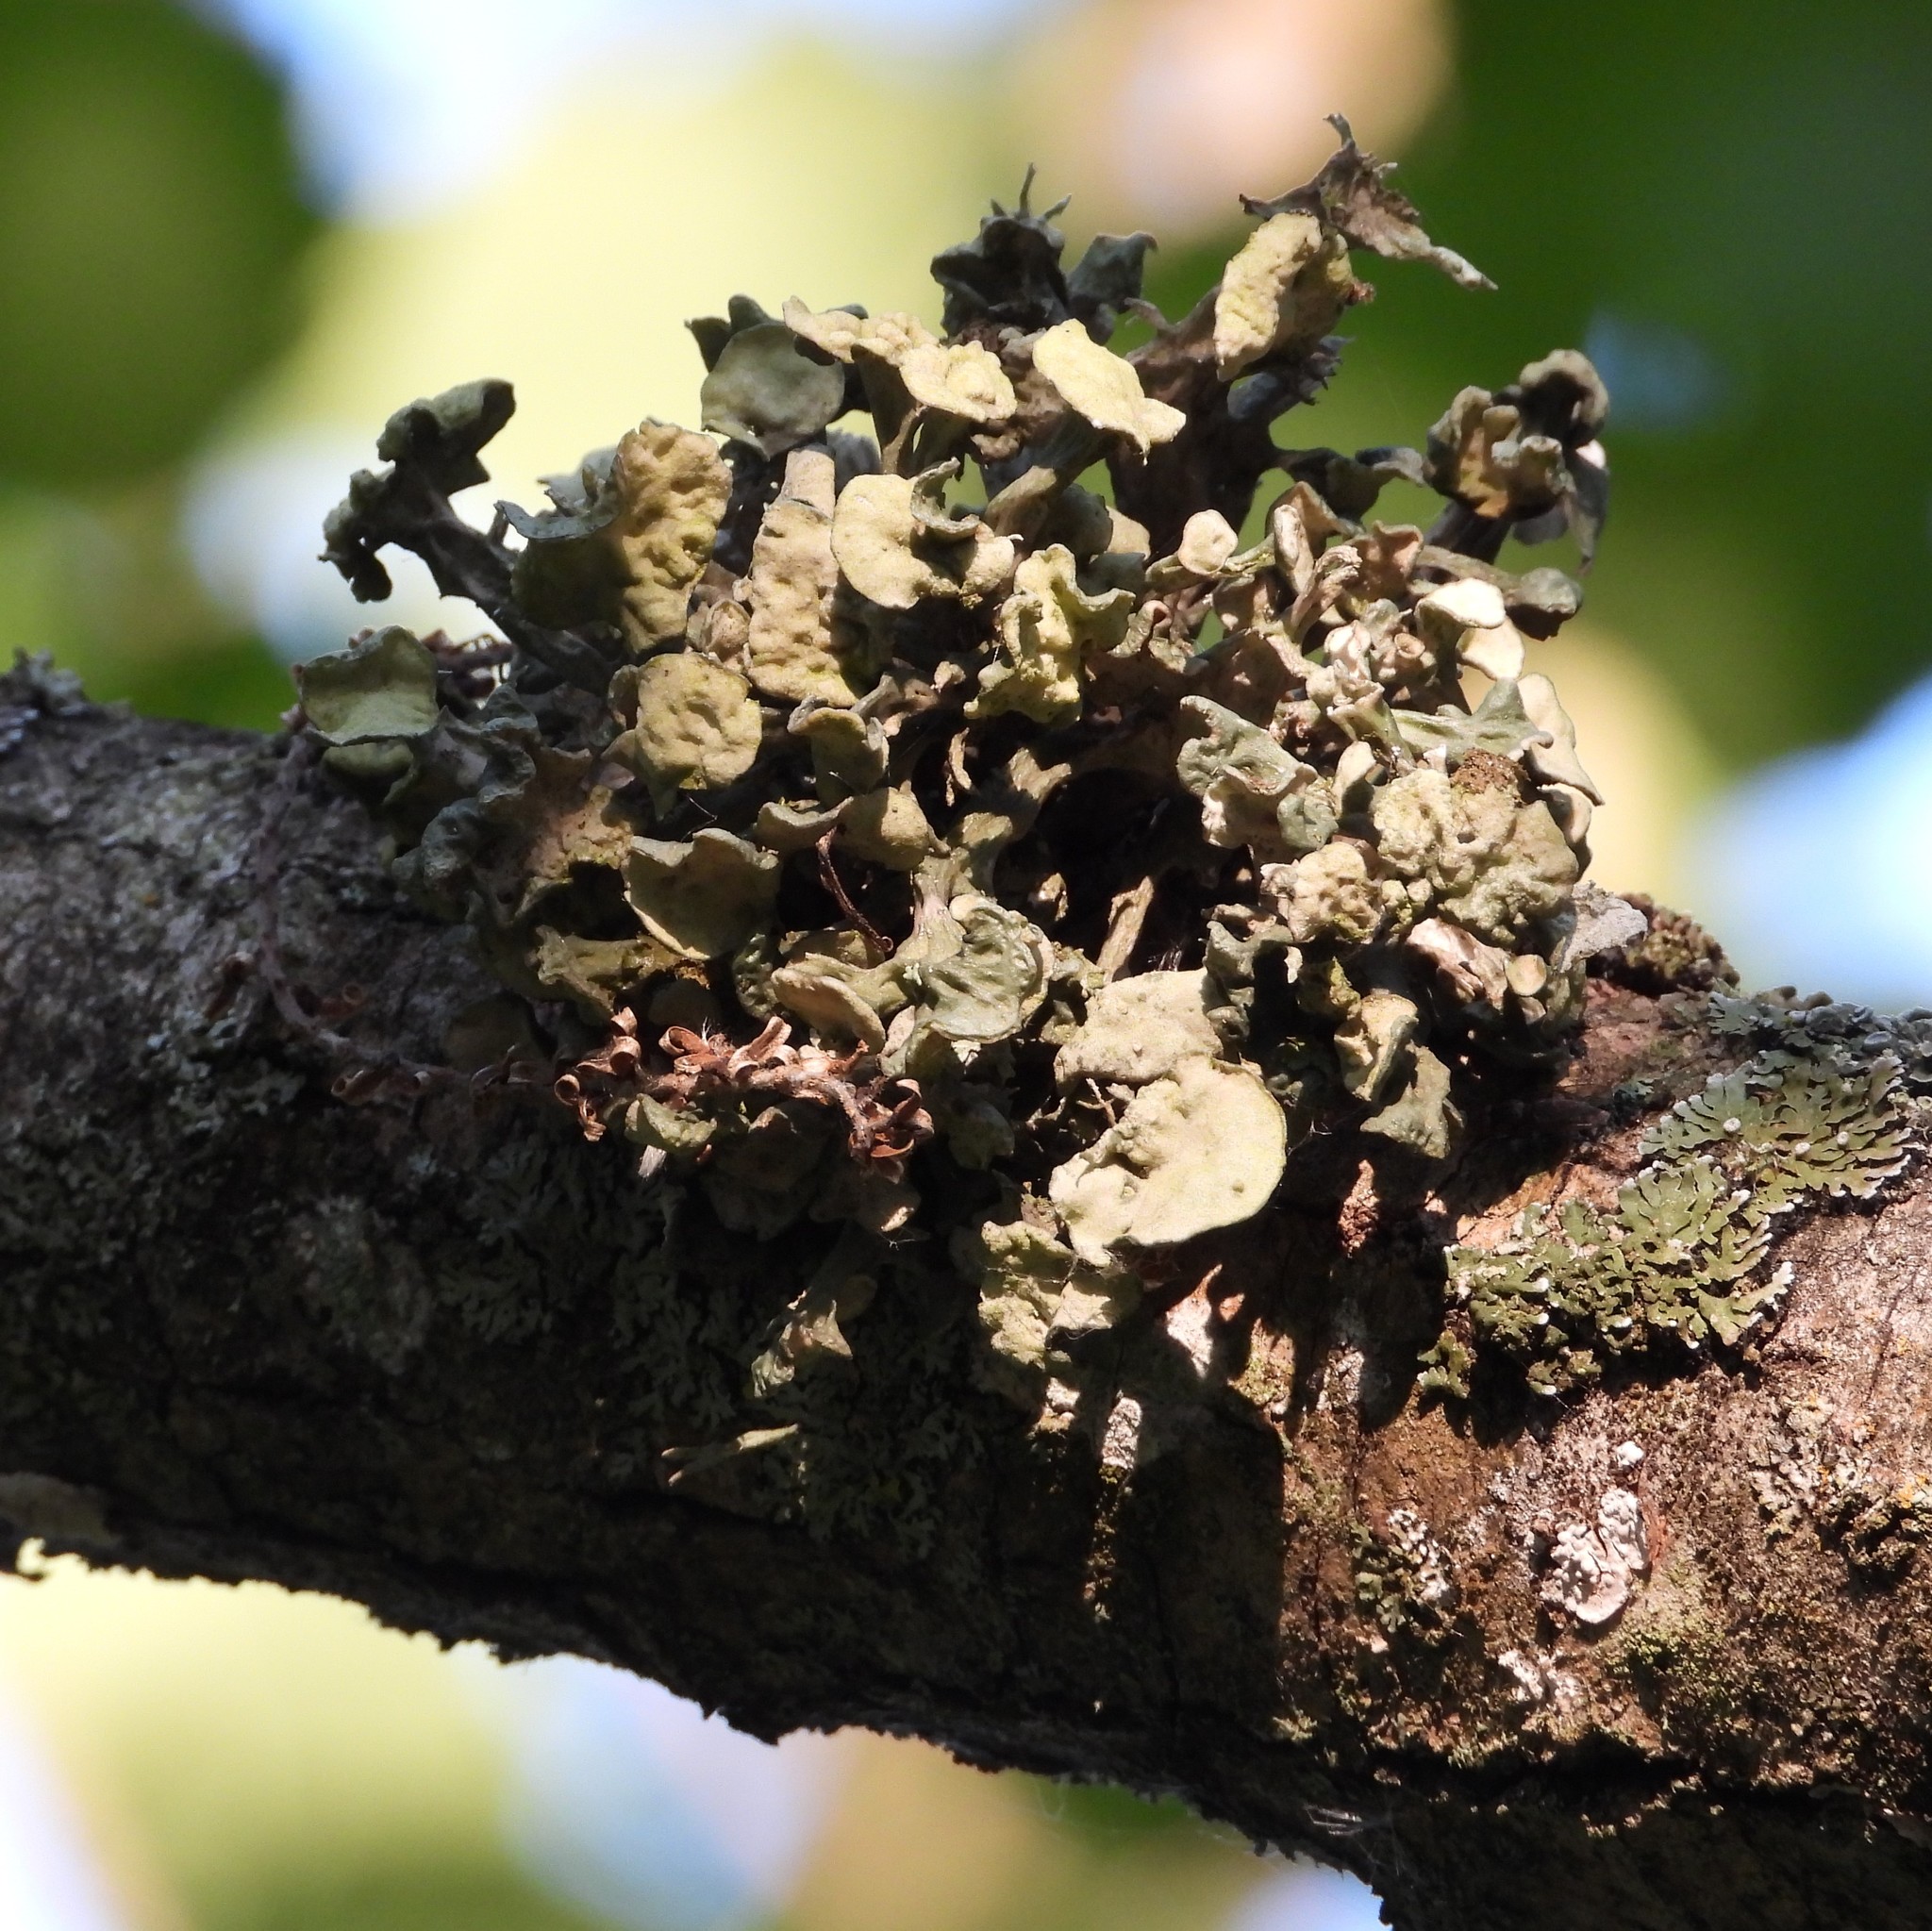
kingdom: Fungi
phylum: Ascomycota
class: Lecanoromycetes
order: Lecanorales
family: Ramalinaceae
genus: Ramalina
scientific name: Ramalina fastigiata
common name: Dotted ribbon lichen
